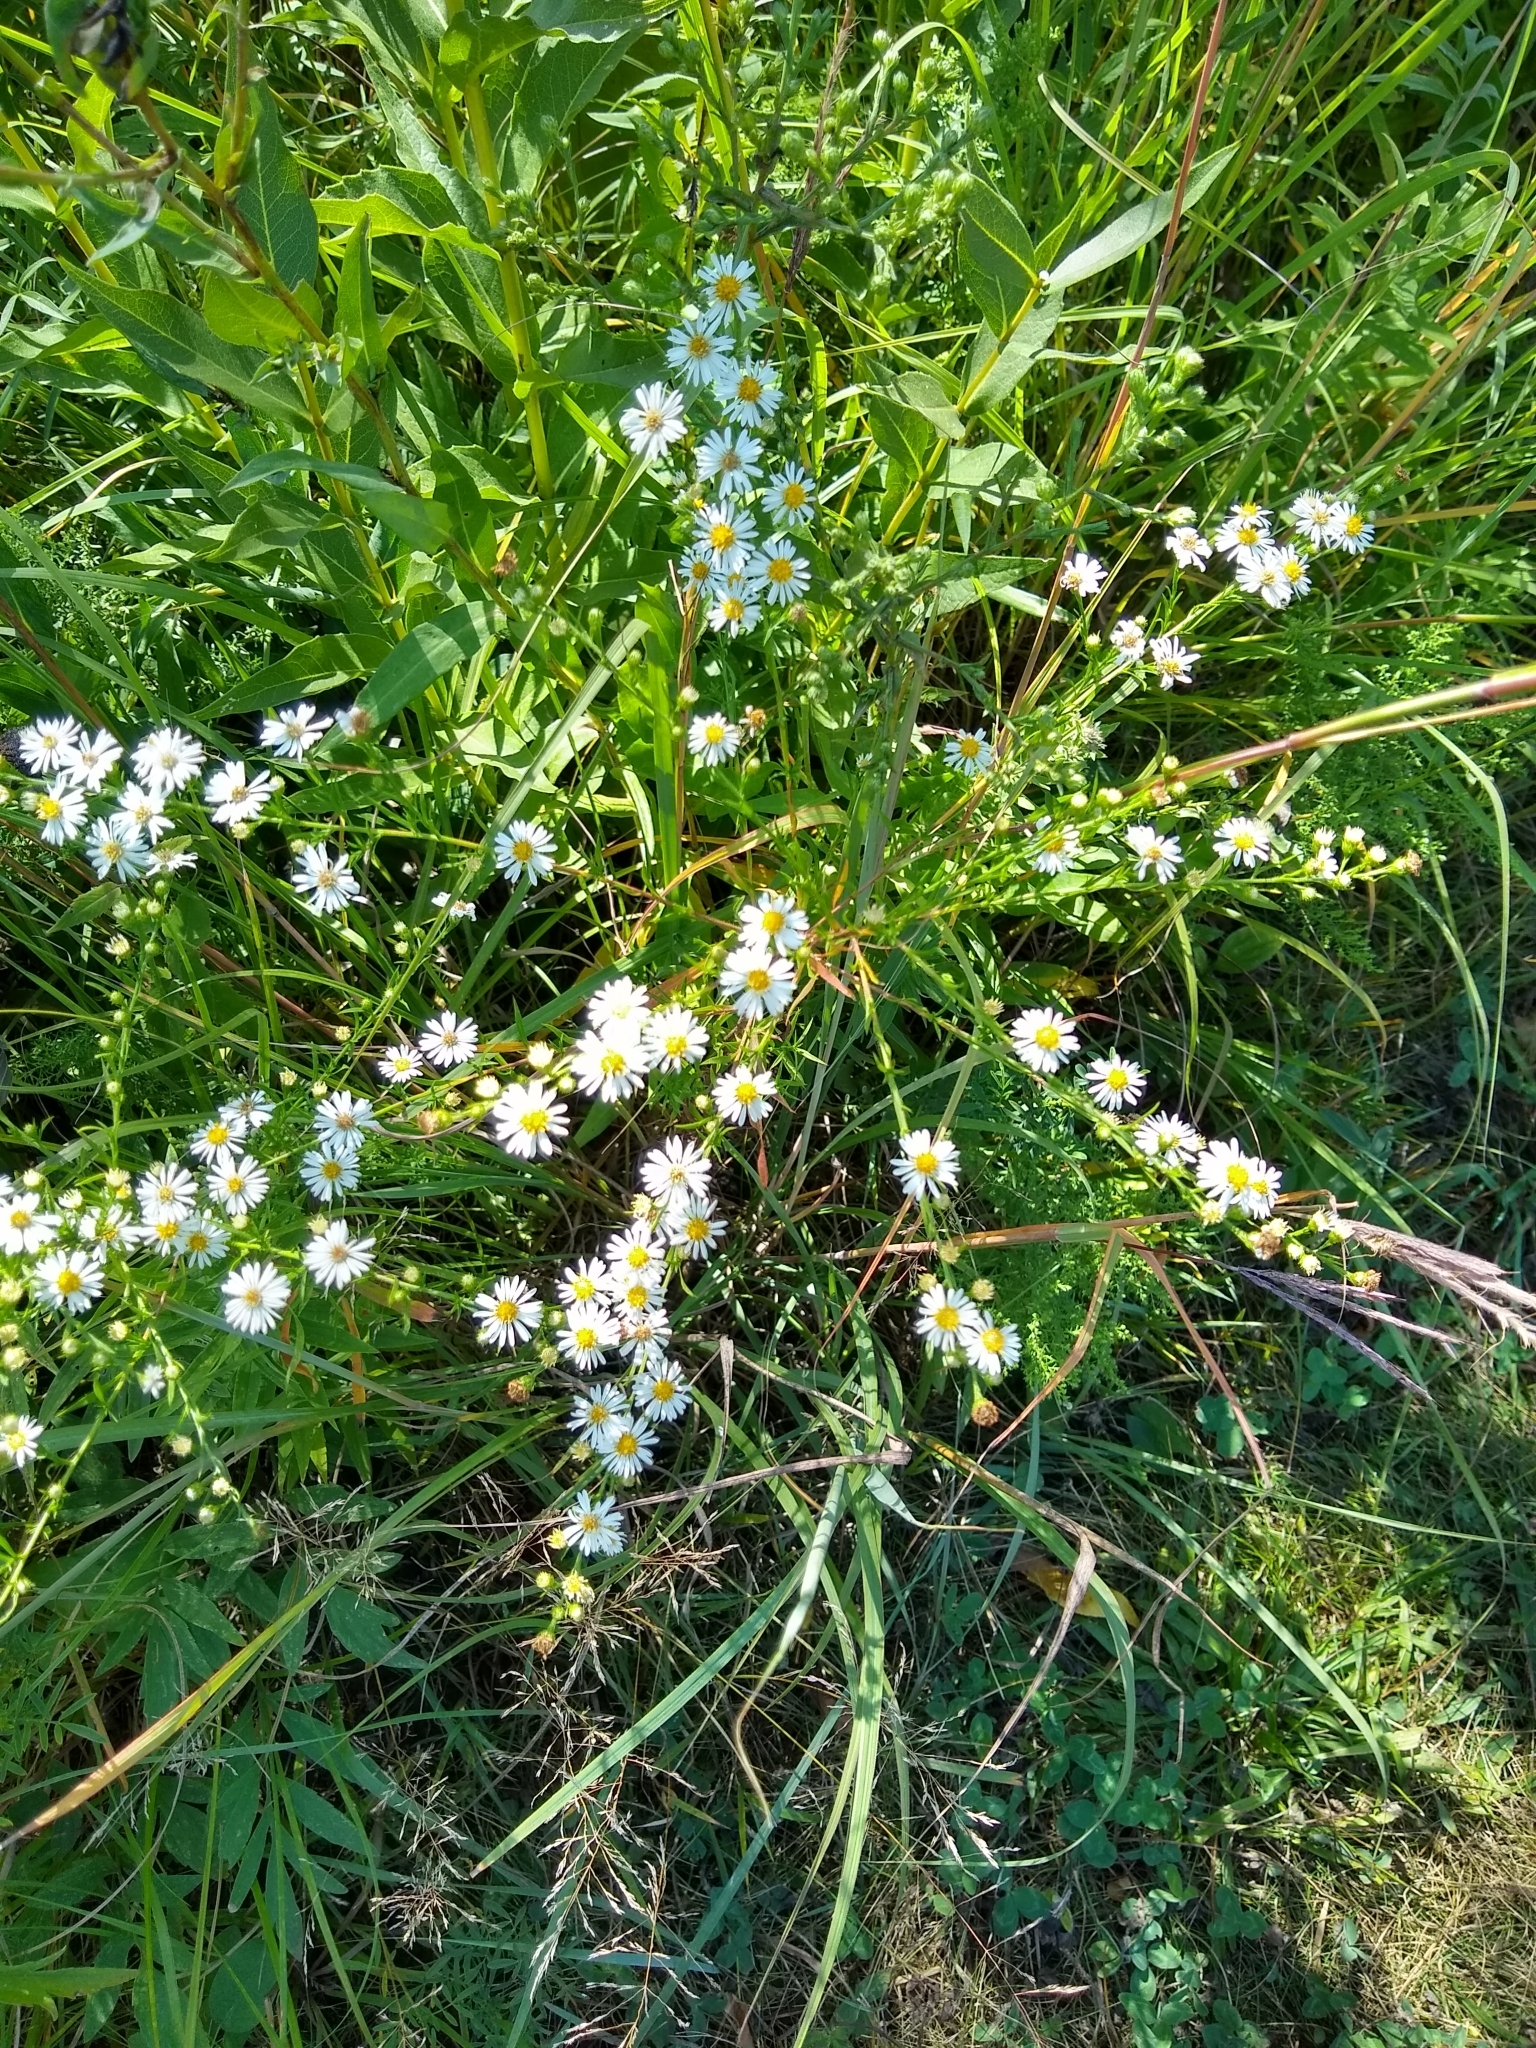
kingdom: Plantae
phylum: Tracheophyta
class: Magnoliopsida
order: Asterales
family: Asteraceae
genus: Symphyotrichum
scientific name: Symphyotrichum pilosum
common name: Awl aster
